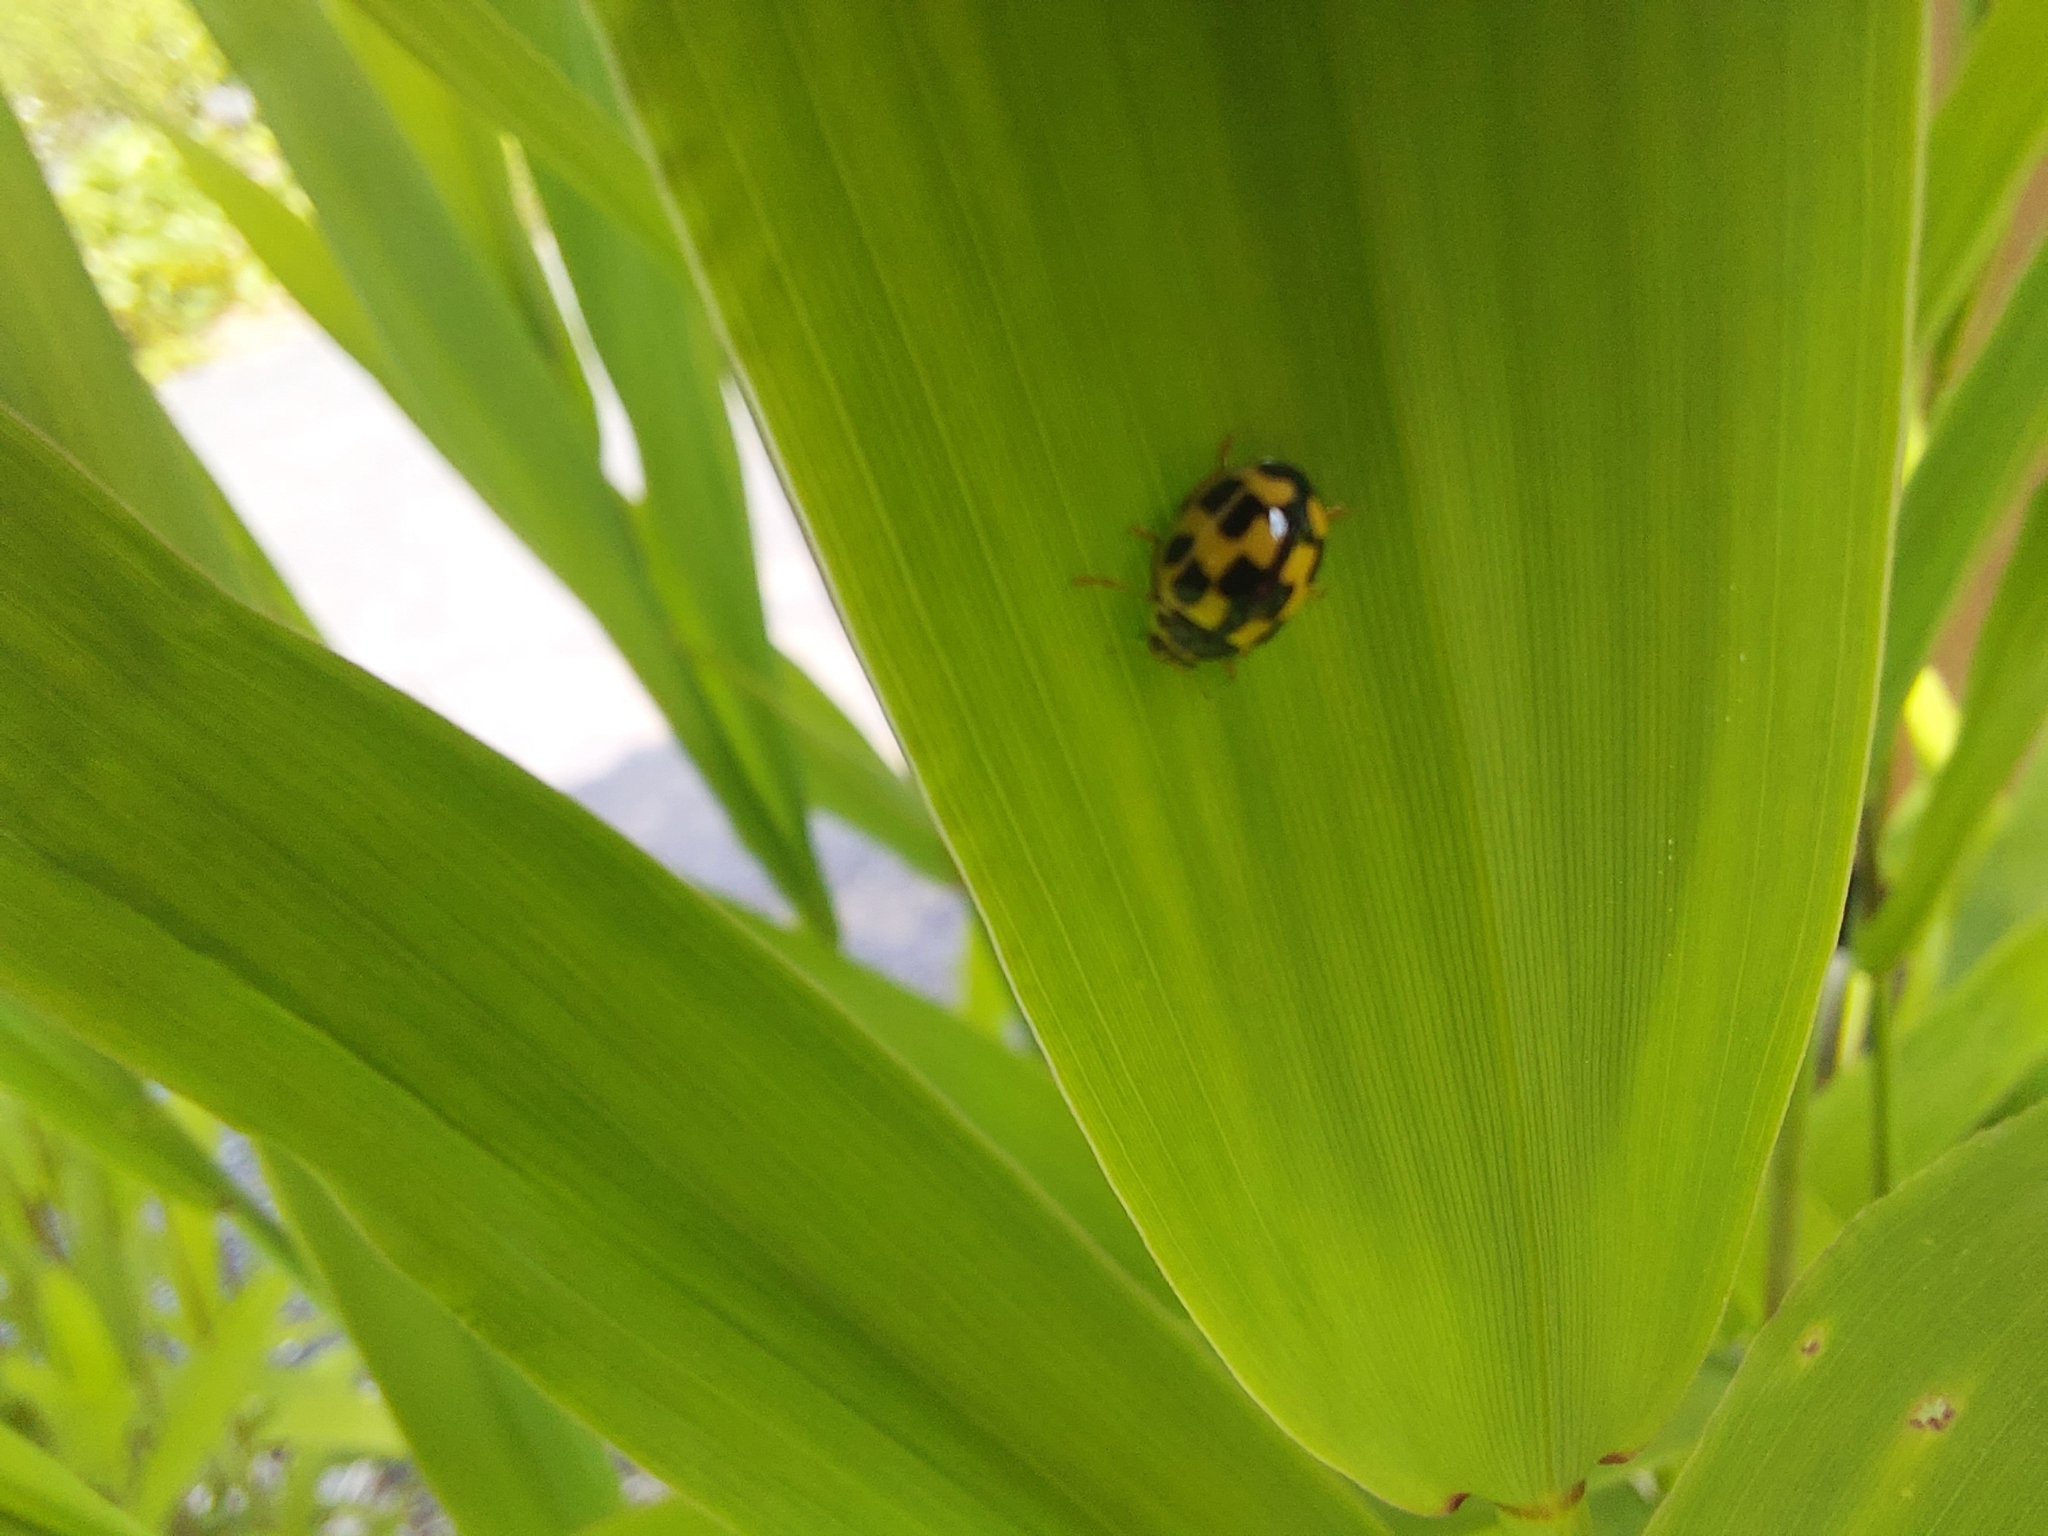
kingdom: Animalia
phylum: Arthropoda
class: Insecta
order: Coleoptera
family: Coccinellidae
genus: Propylaea
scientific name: Propylaea quatuordecimpunctata
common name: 14-spotted ladybird beetle
